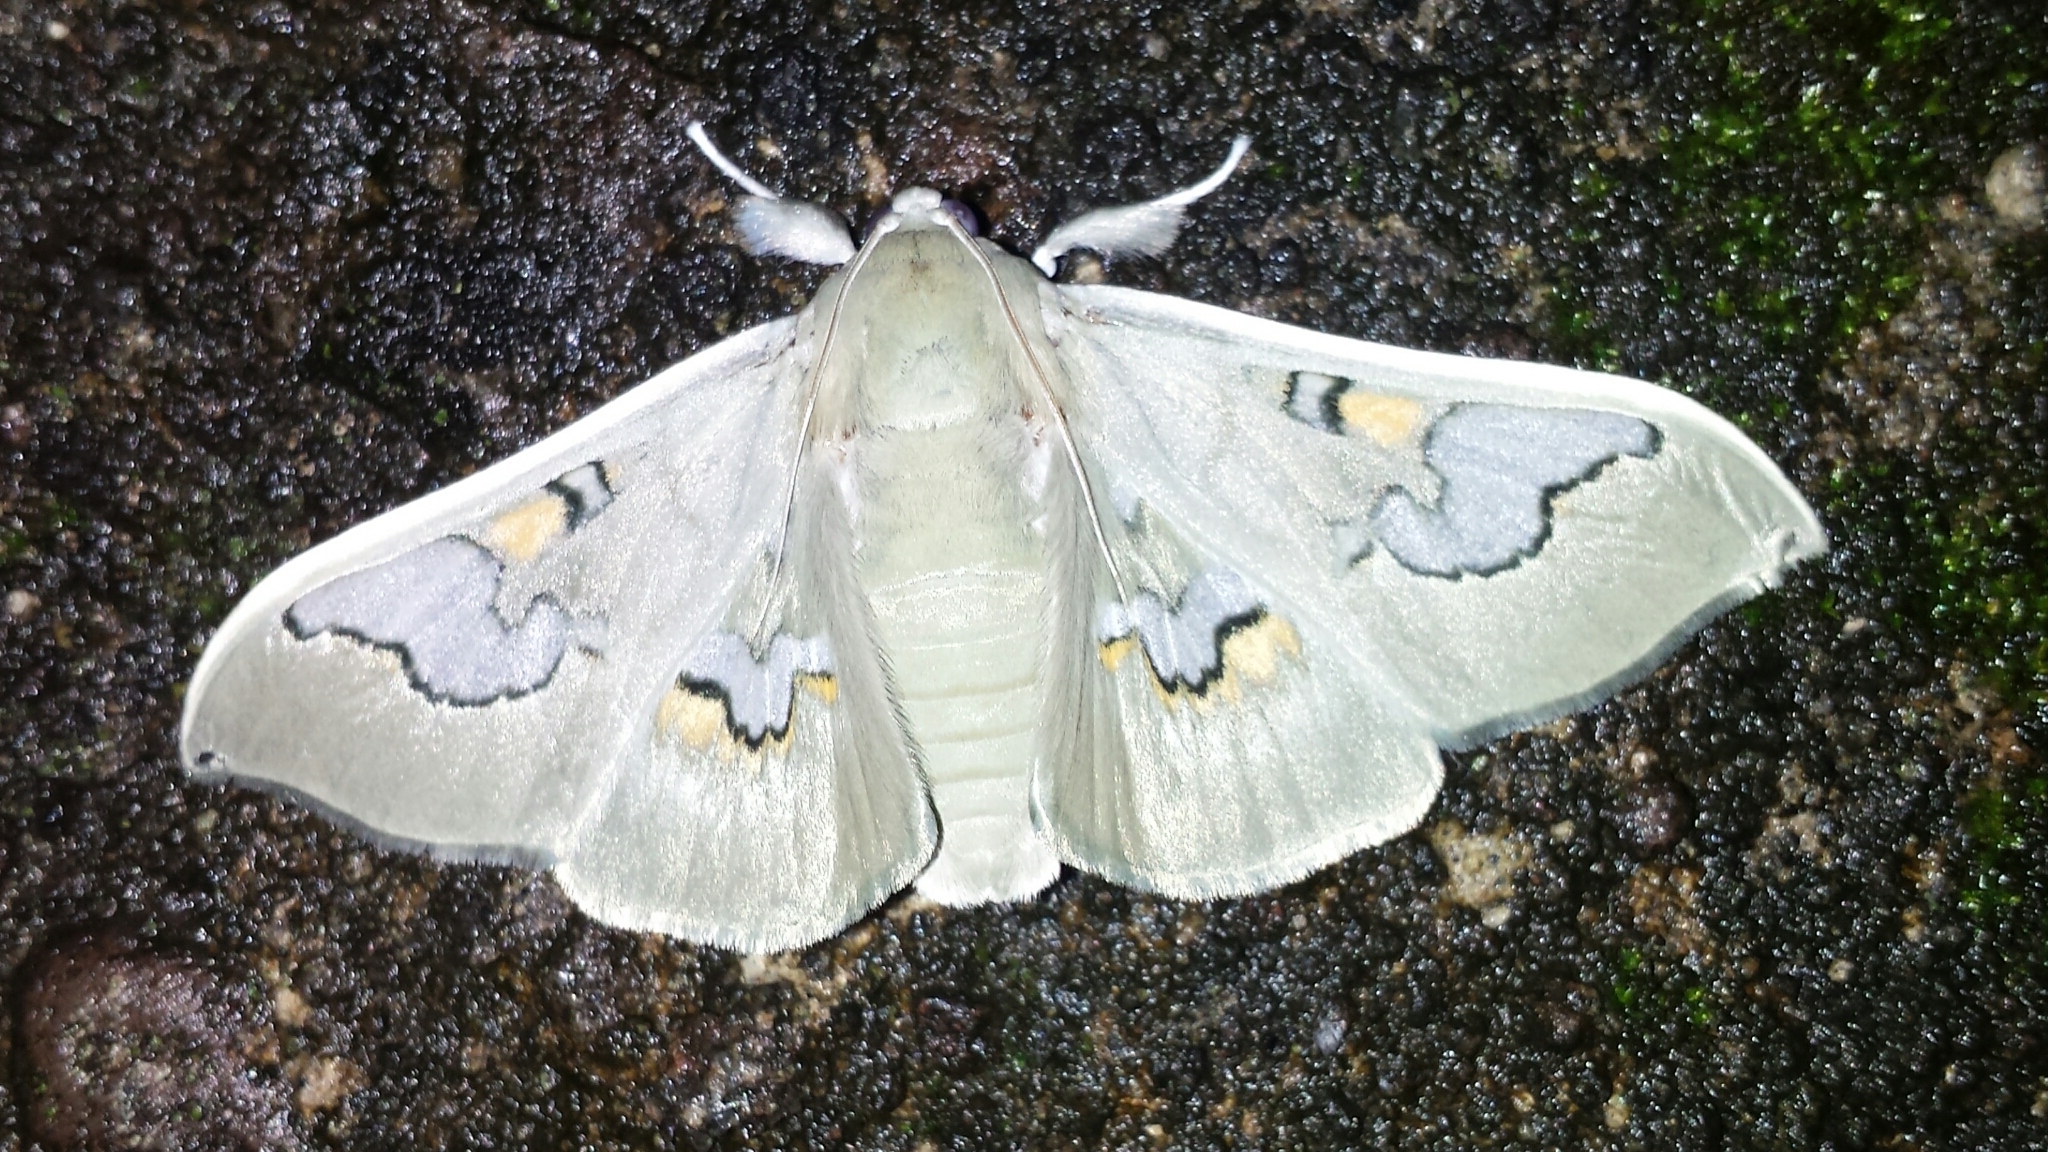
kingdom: Animalia
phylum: Arthropoda
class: Insecta
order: Lepidoptera
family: Crambidae
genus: Siga
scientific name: Siga pyronia
